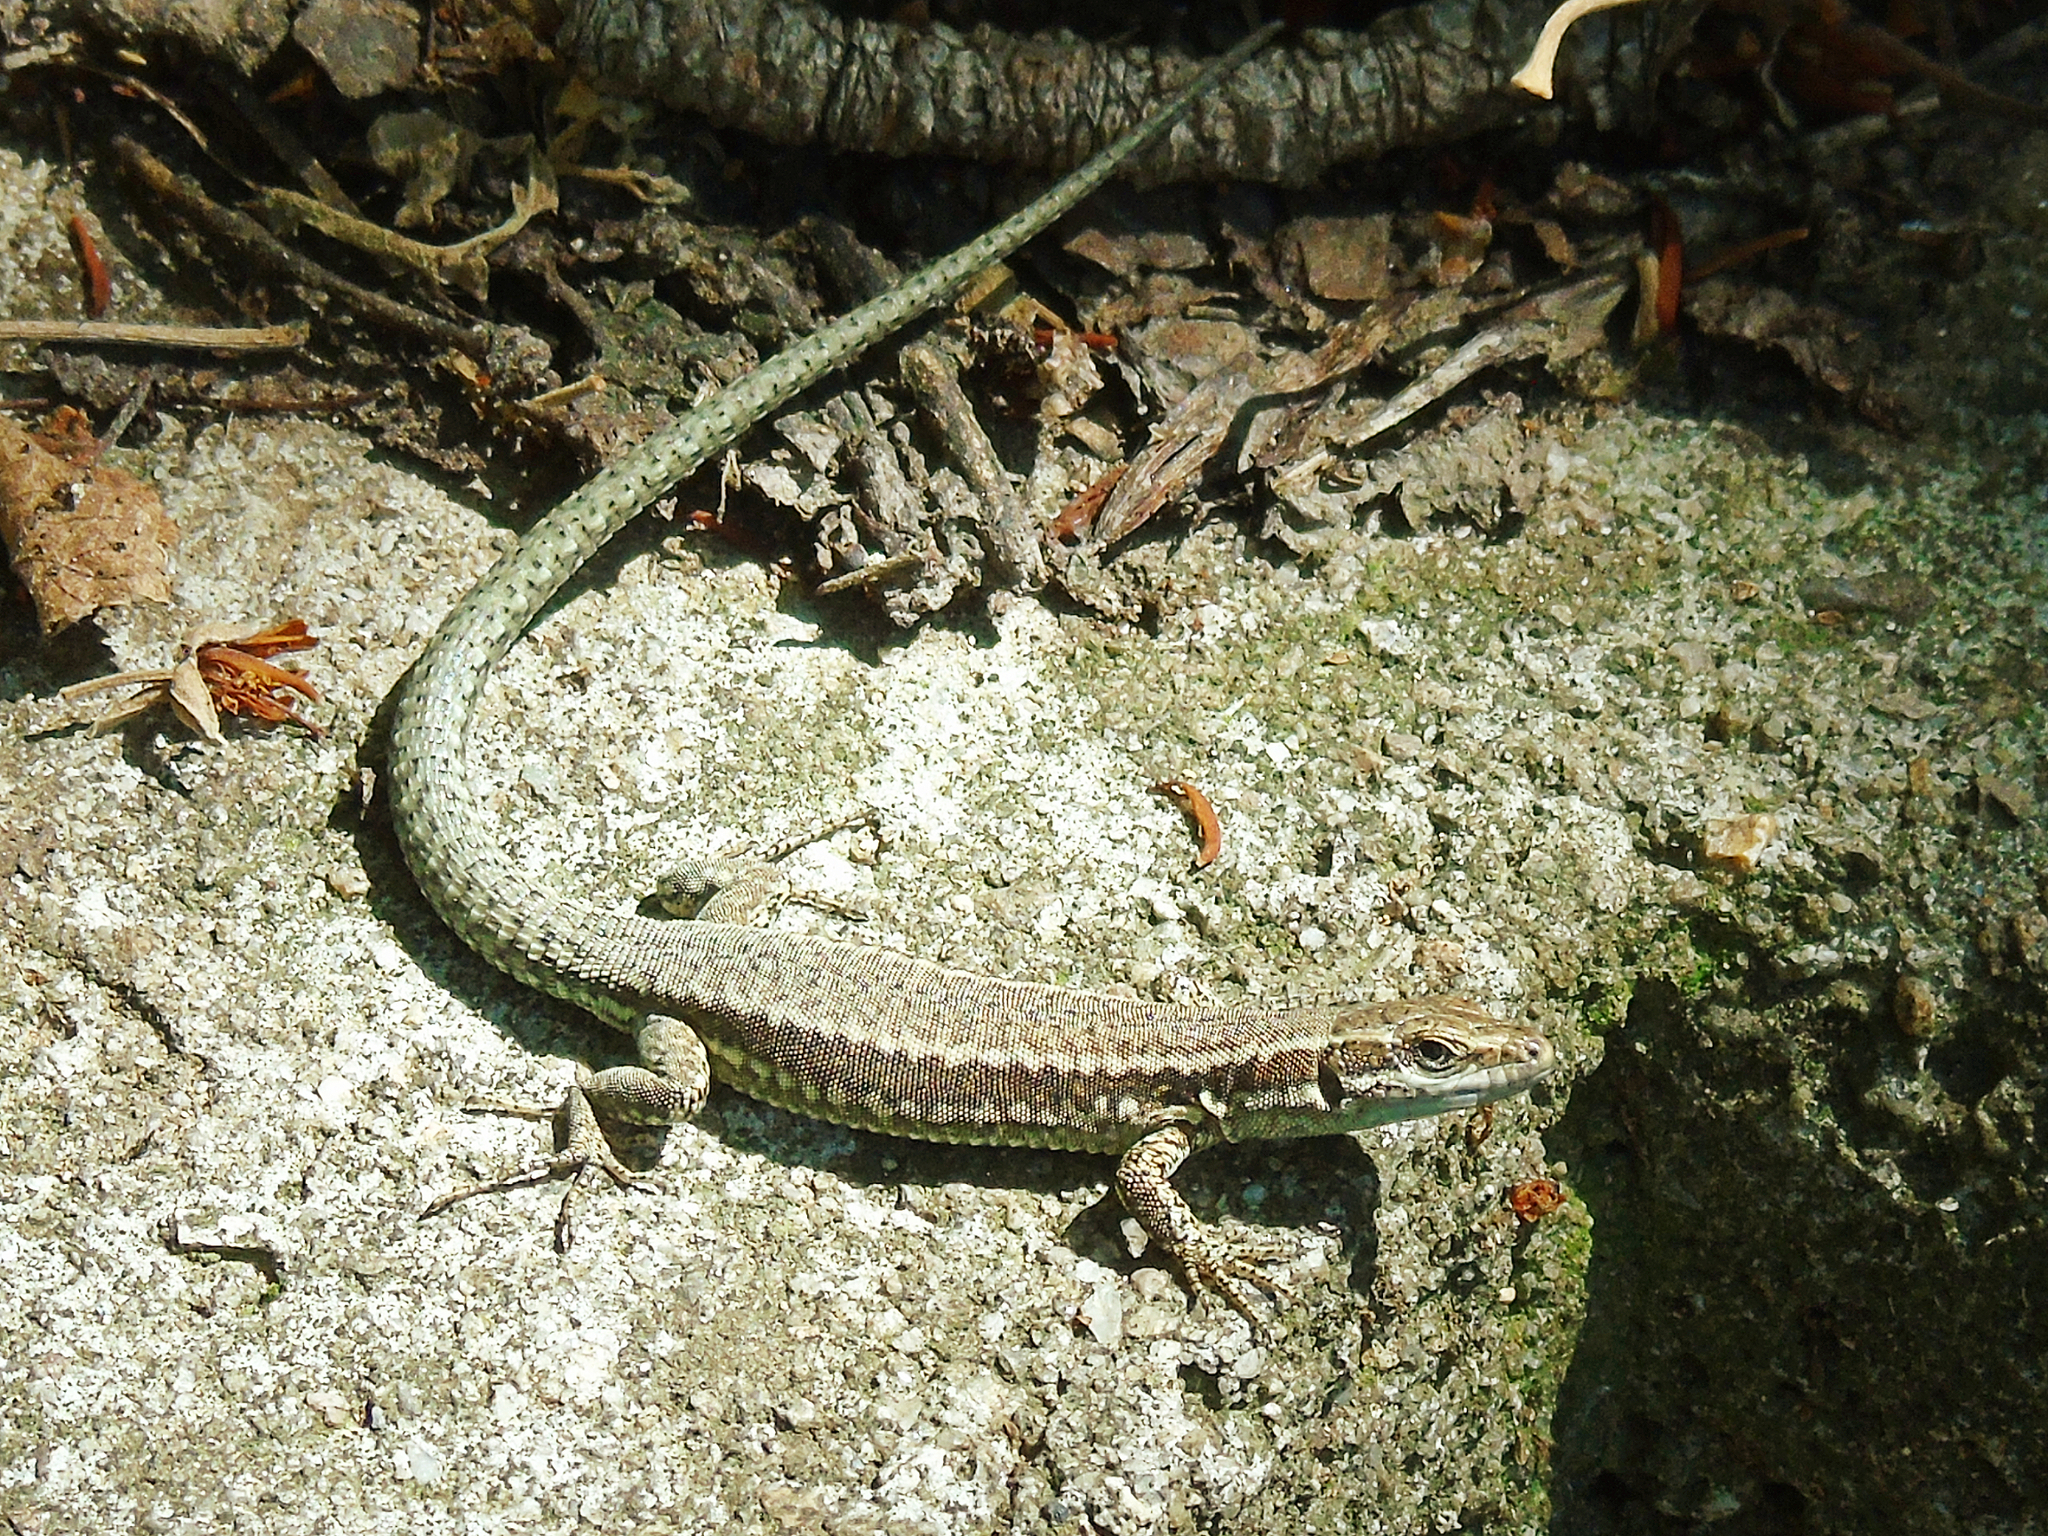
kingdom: Animalia
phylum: Chordata
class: Squamata
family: Lacertidae
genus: Podarcis
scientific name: Podarcis muralis
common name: Common wall lizard
